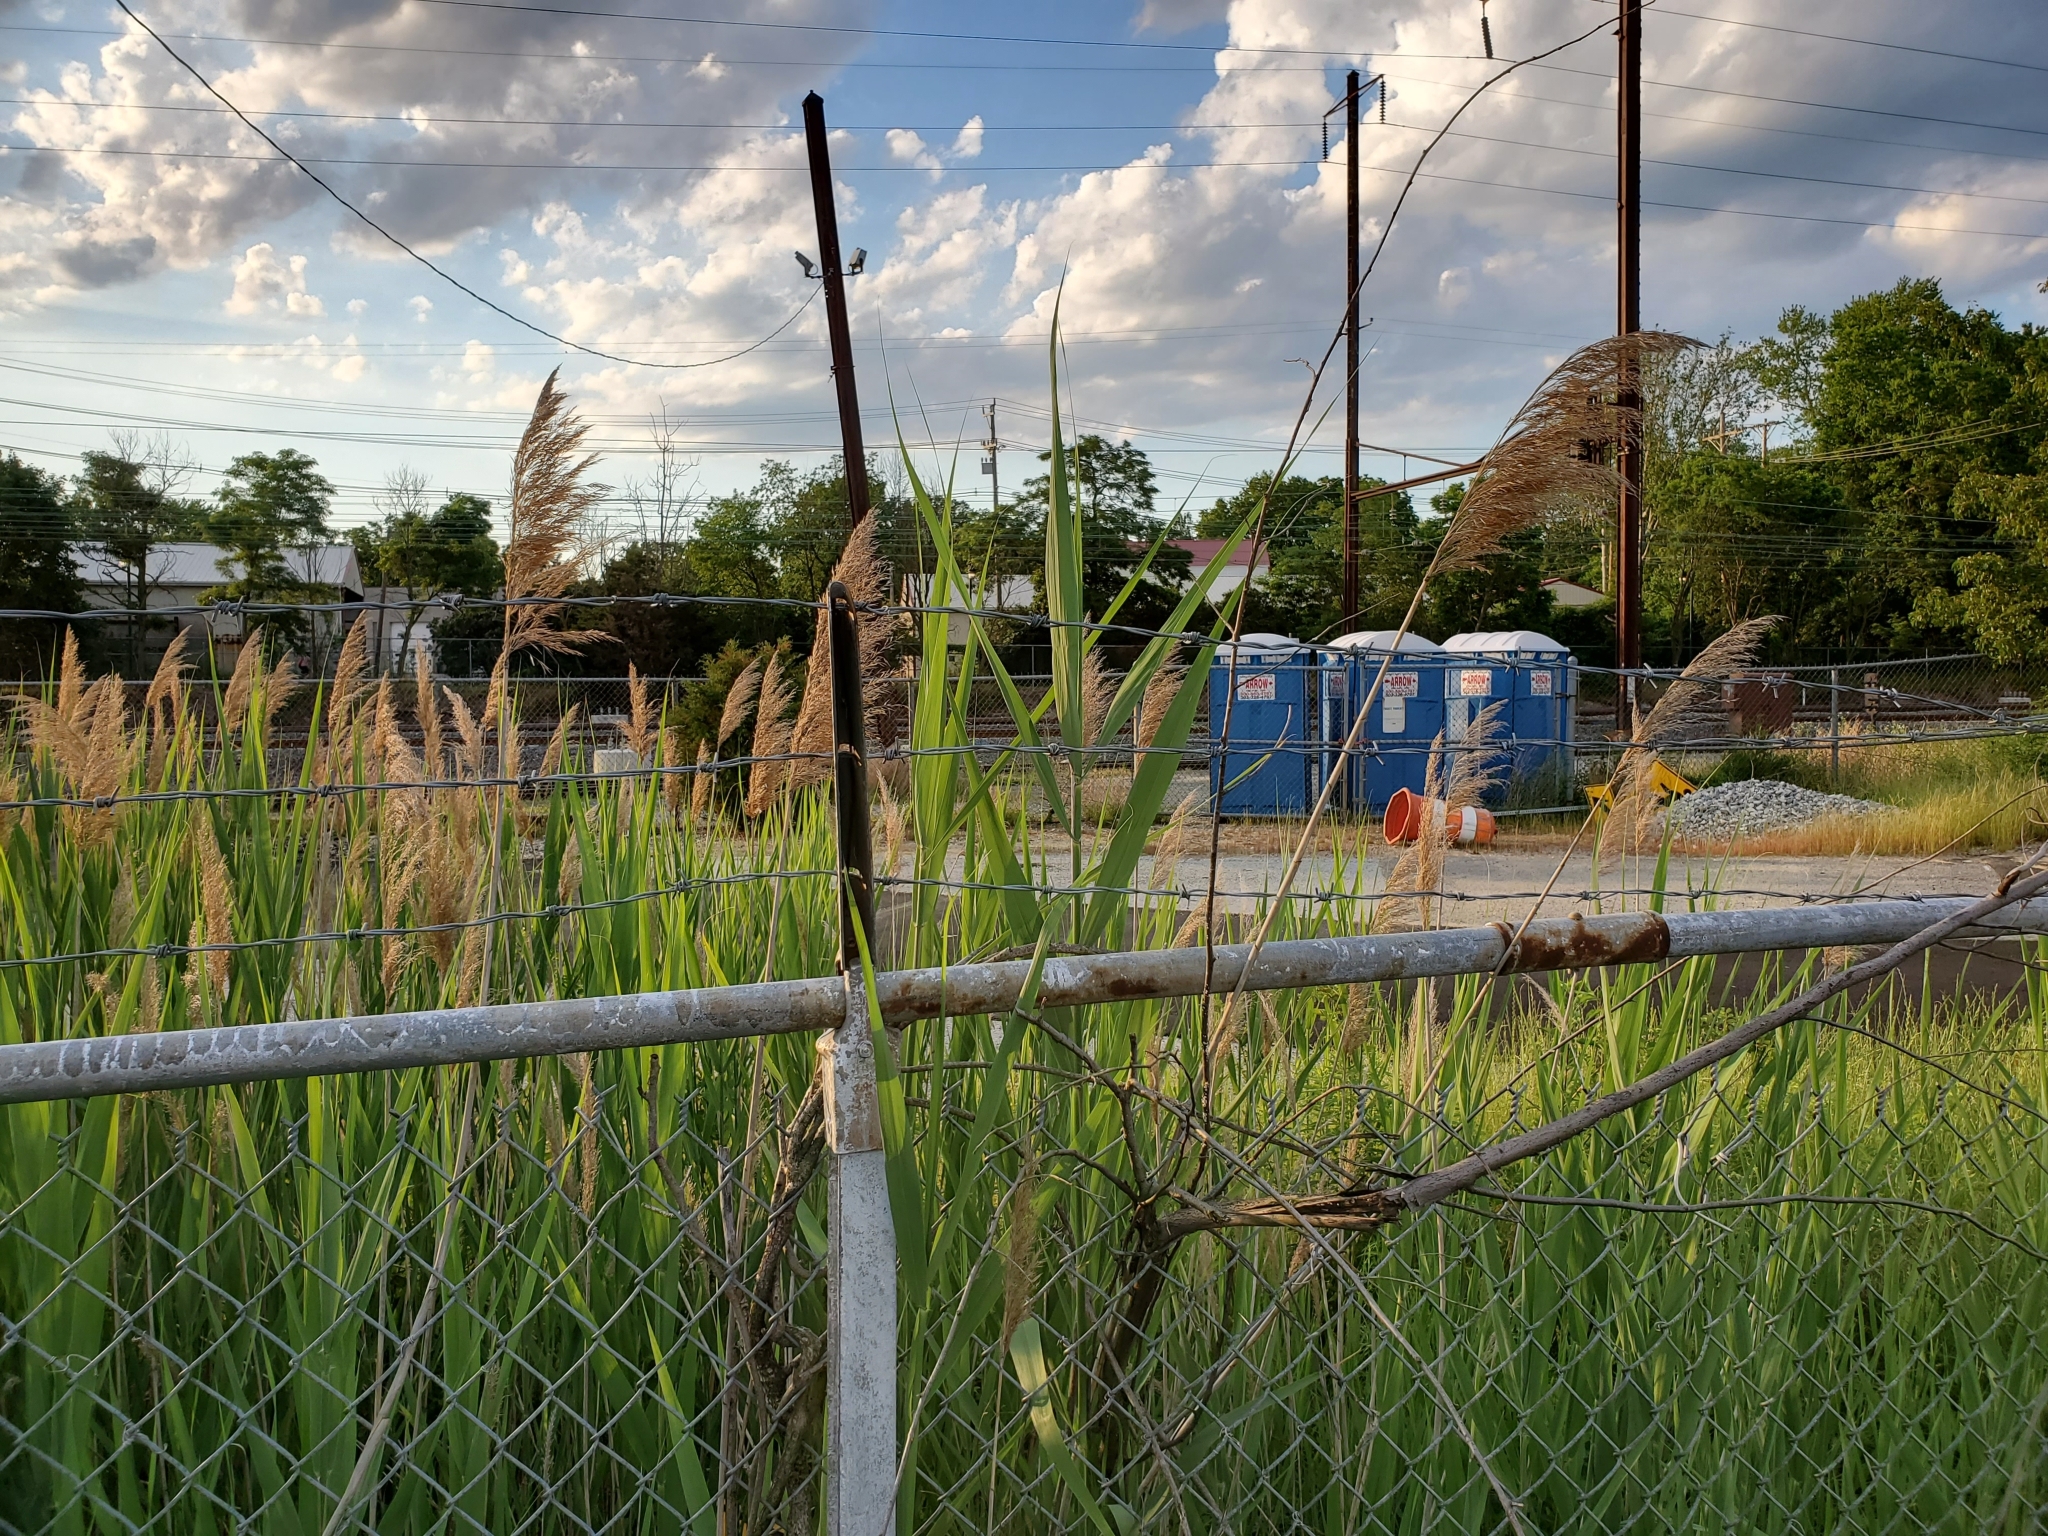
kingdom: Plantae
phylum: Tracheophyta
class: Liliopsida
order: Poales
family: Poaceae
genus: Phragmites
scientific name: Phragmites australis
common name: Common reed
